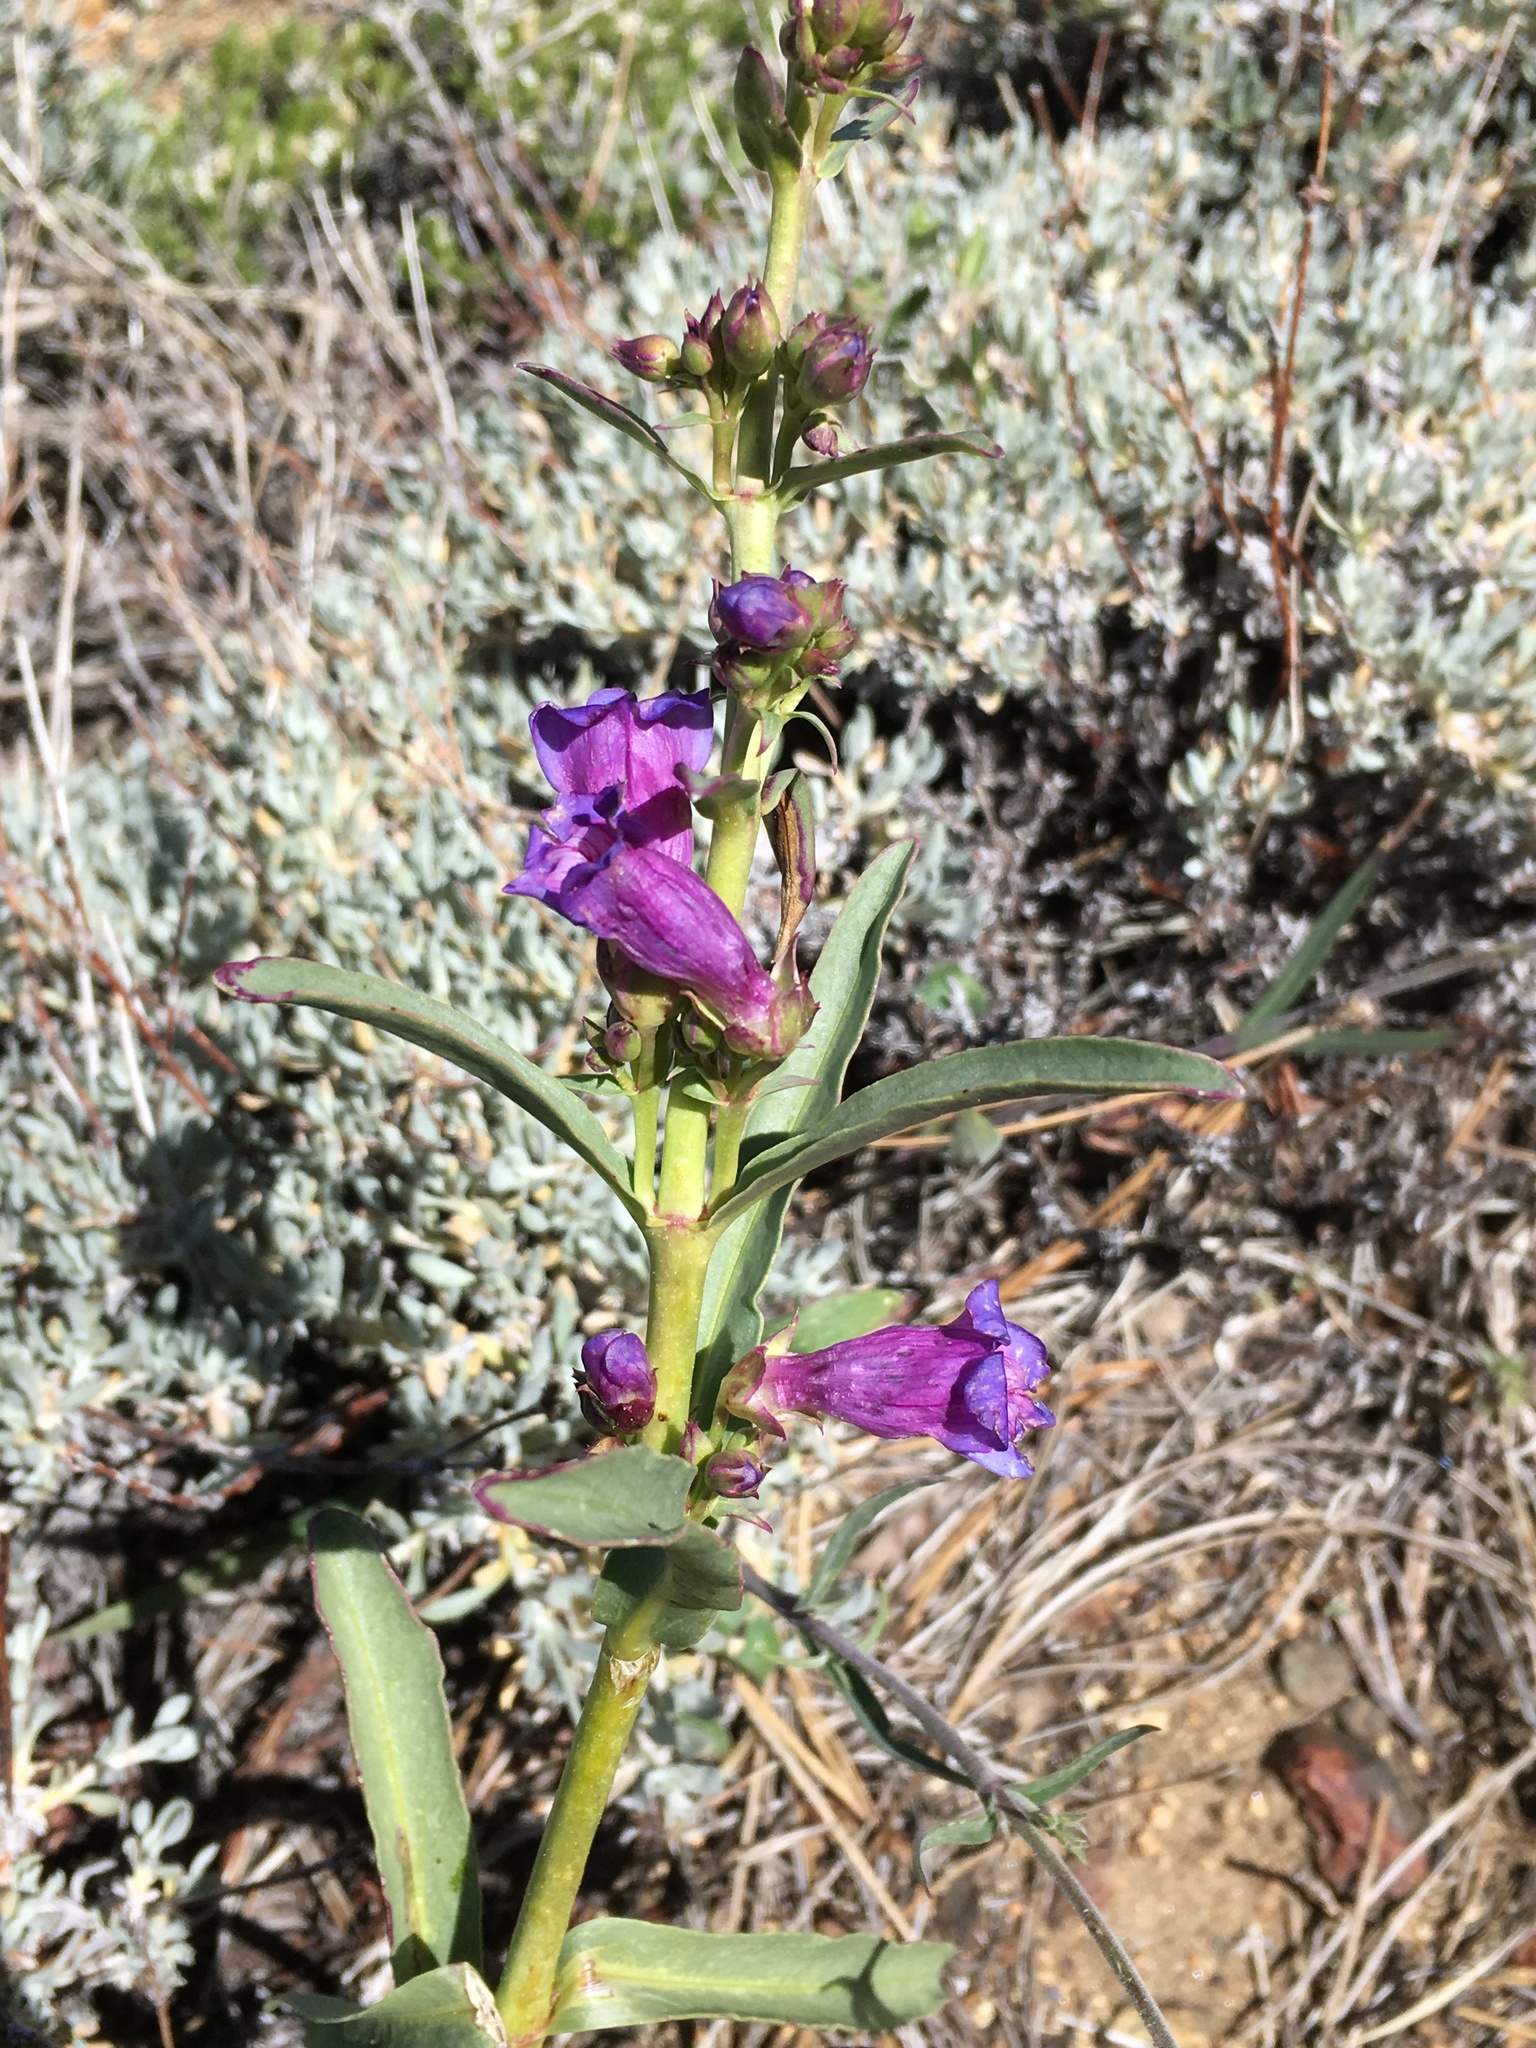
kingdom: Plantae
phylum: Tracheophyta
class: Magnoliopsida
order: Lamiales
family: Plantaginaceae
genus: Penstemon
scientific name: Penstemon speciosus
